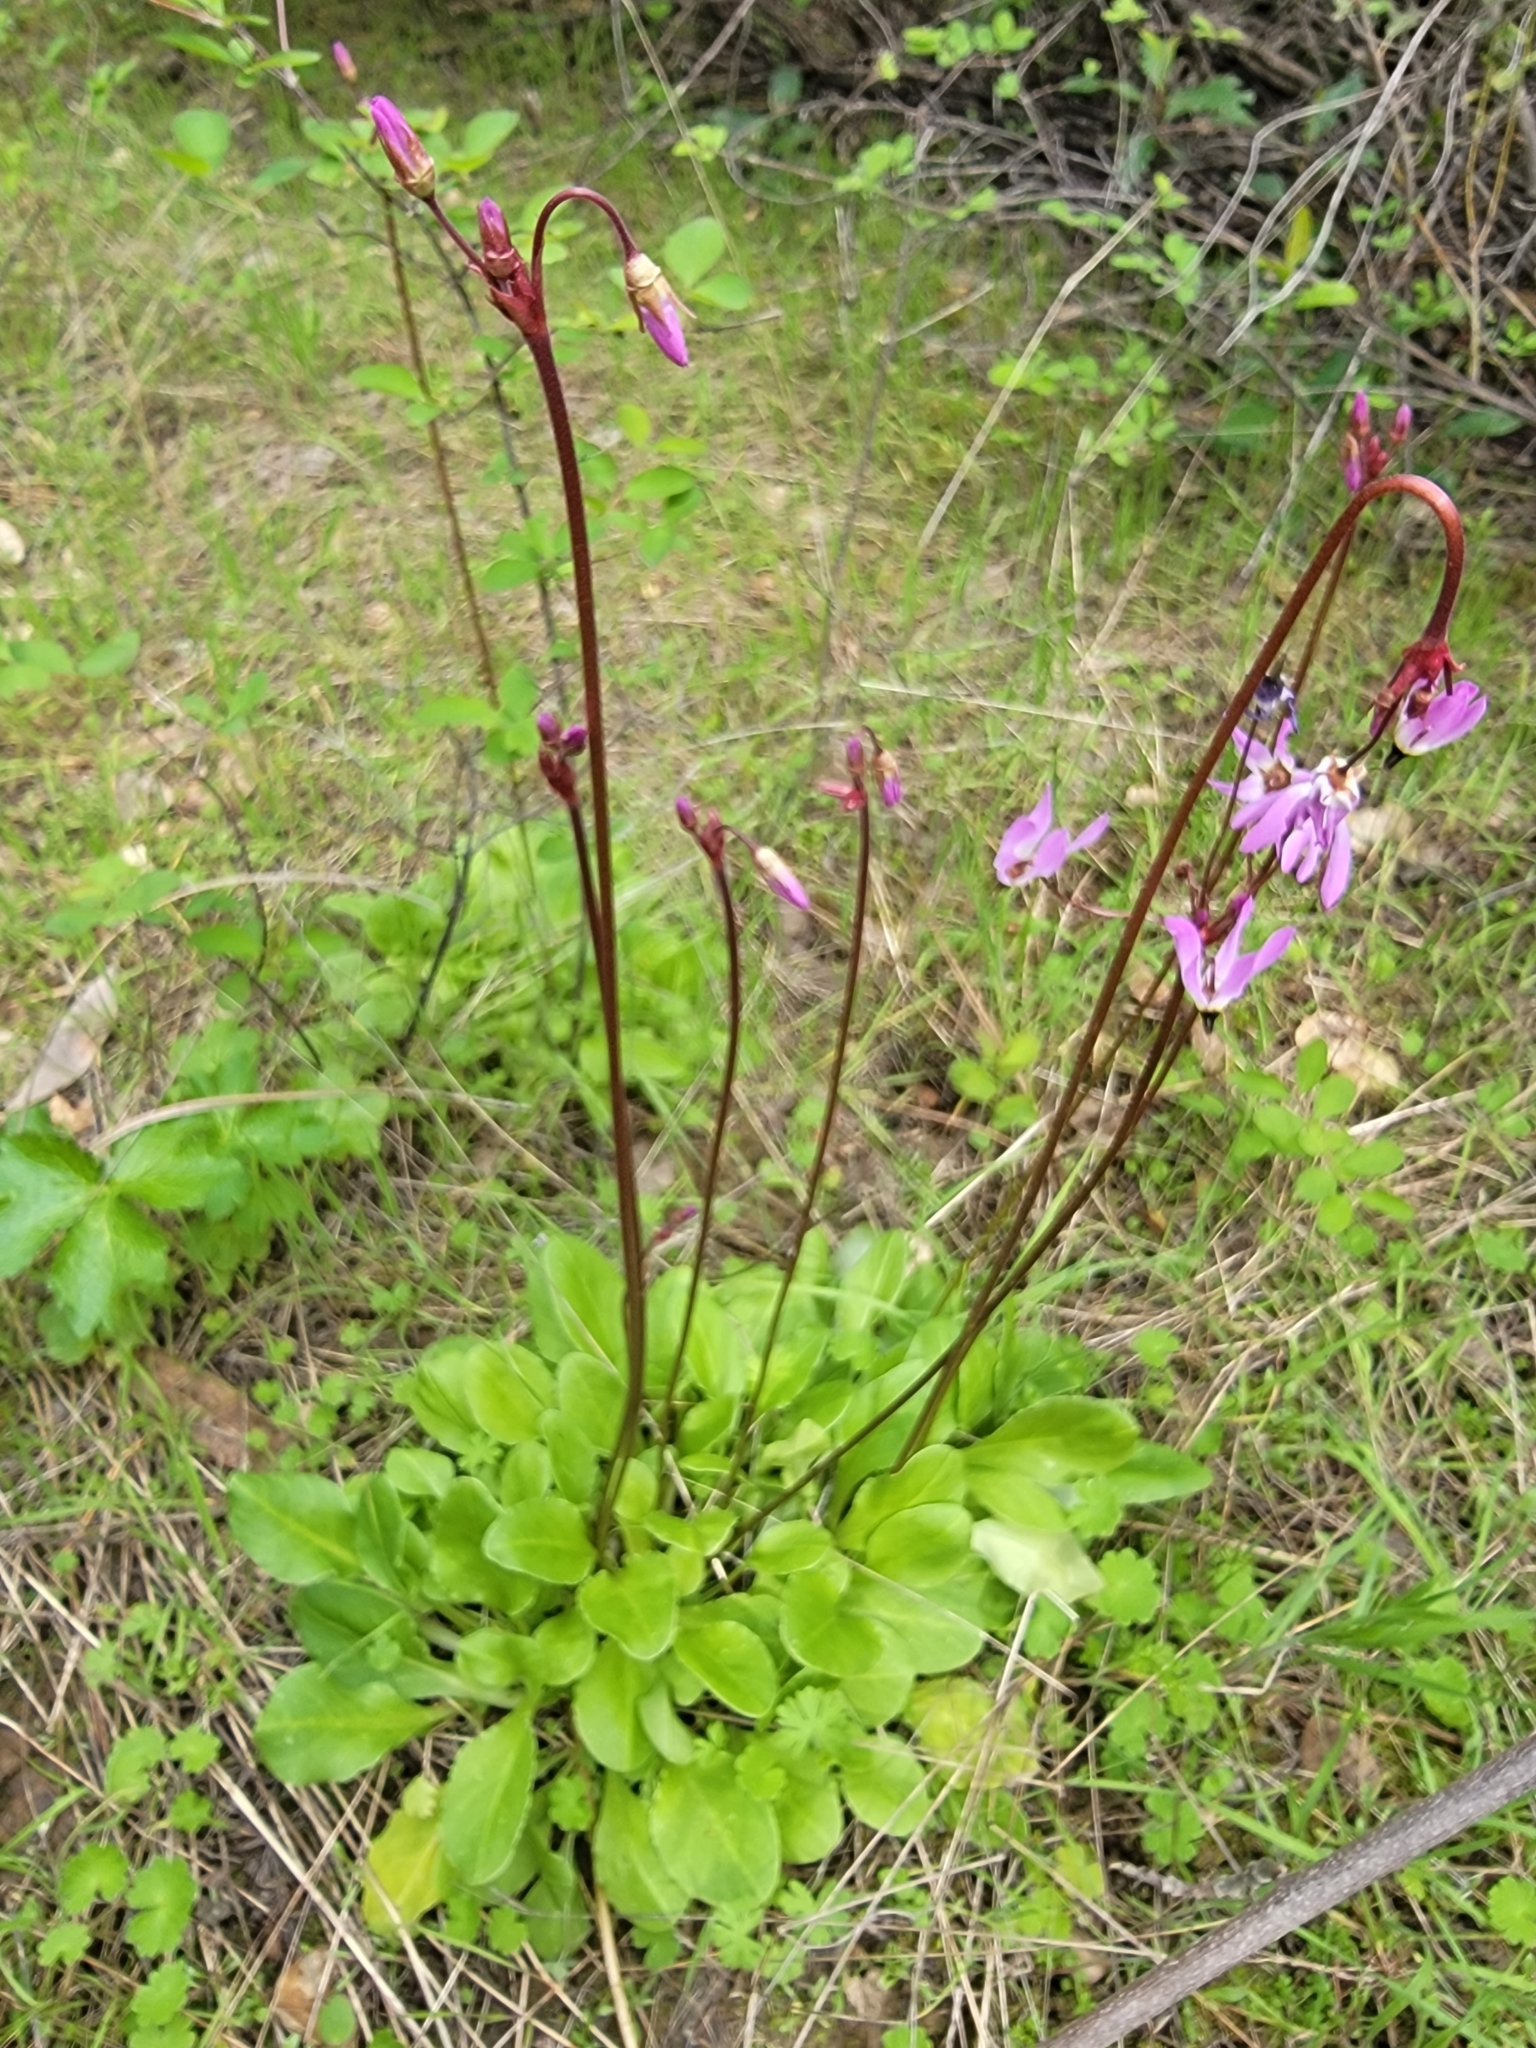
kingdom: Plantae
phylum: Tracheophyta
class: Magnoliopsida
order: Ericales
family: Primulaceae
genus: Dodecatheon
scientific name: Dodecatheon hendersonii
